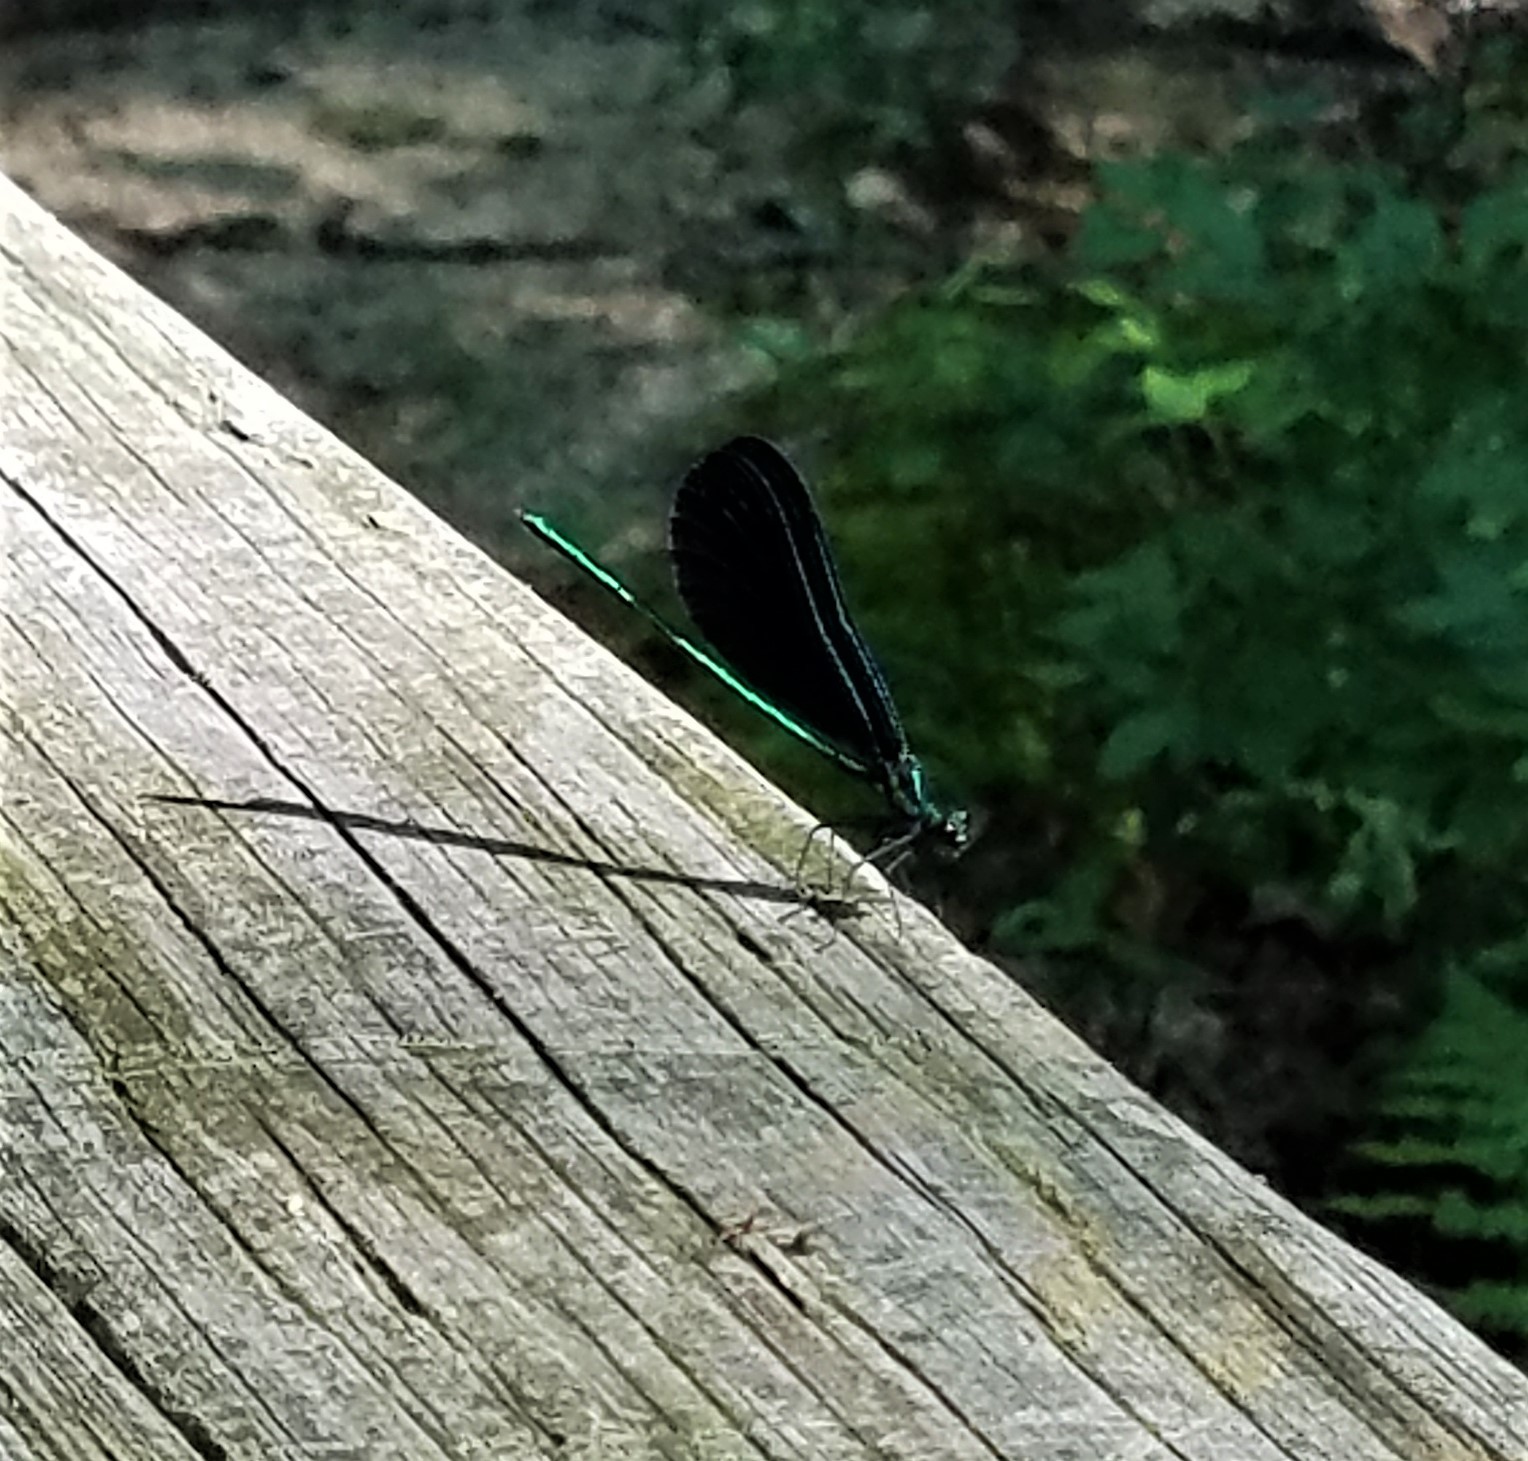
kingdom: Animalia
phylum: Arthropoda
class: Insecta
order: Odonata
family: Calopterygidae
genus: Calopteryx
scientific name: Calopteryx maculata
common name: Ebony jewelwing
